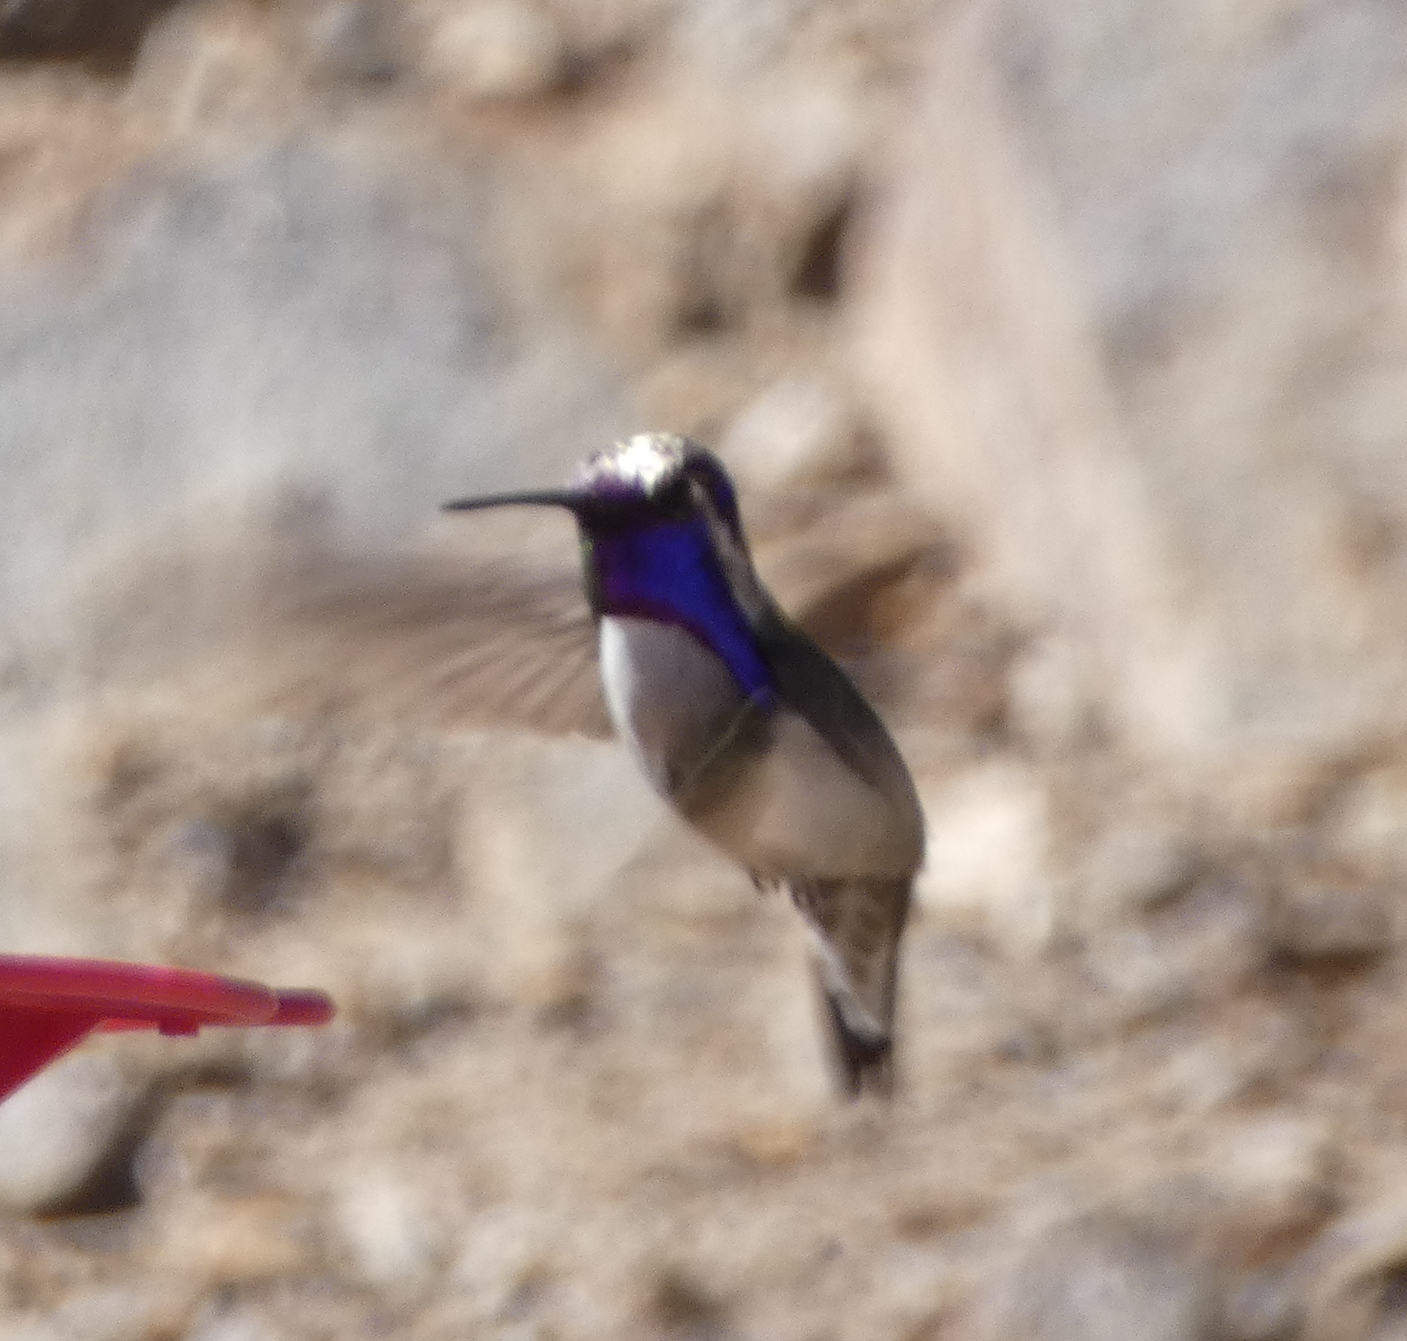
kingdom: Animalia
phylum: Chordata
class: Aves
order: Apodiformes
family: Trochilidae
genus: Calypte
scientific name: Calypte costae
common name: Costa's hummingbird
